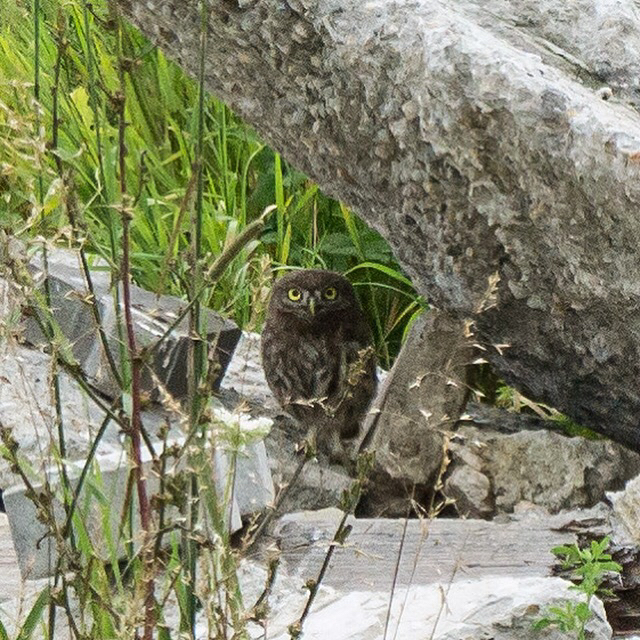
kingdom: Animalia
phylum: Chordata
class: Aves
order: Strigiformes
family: Strigidae
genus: Athene
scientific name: Athene noctua
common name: Little owl
